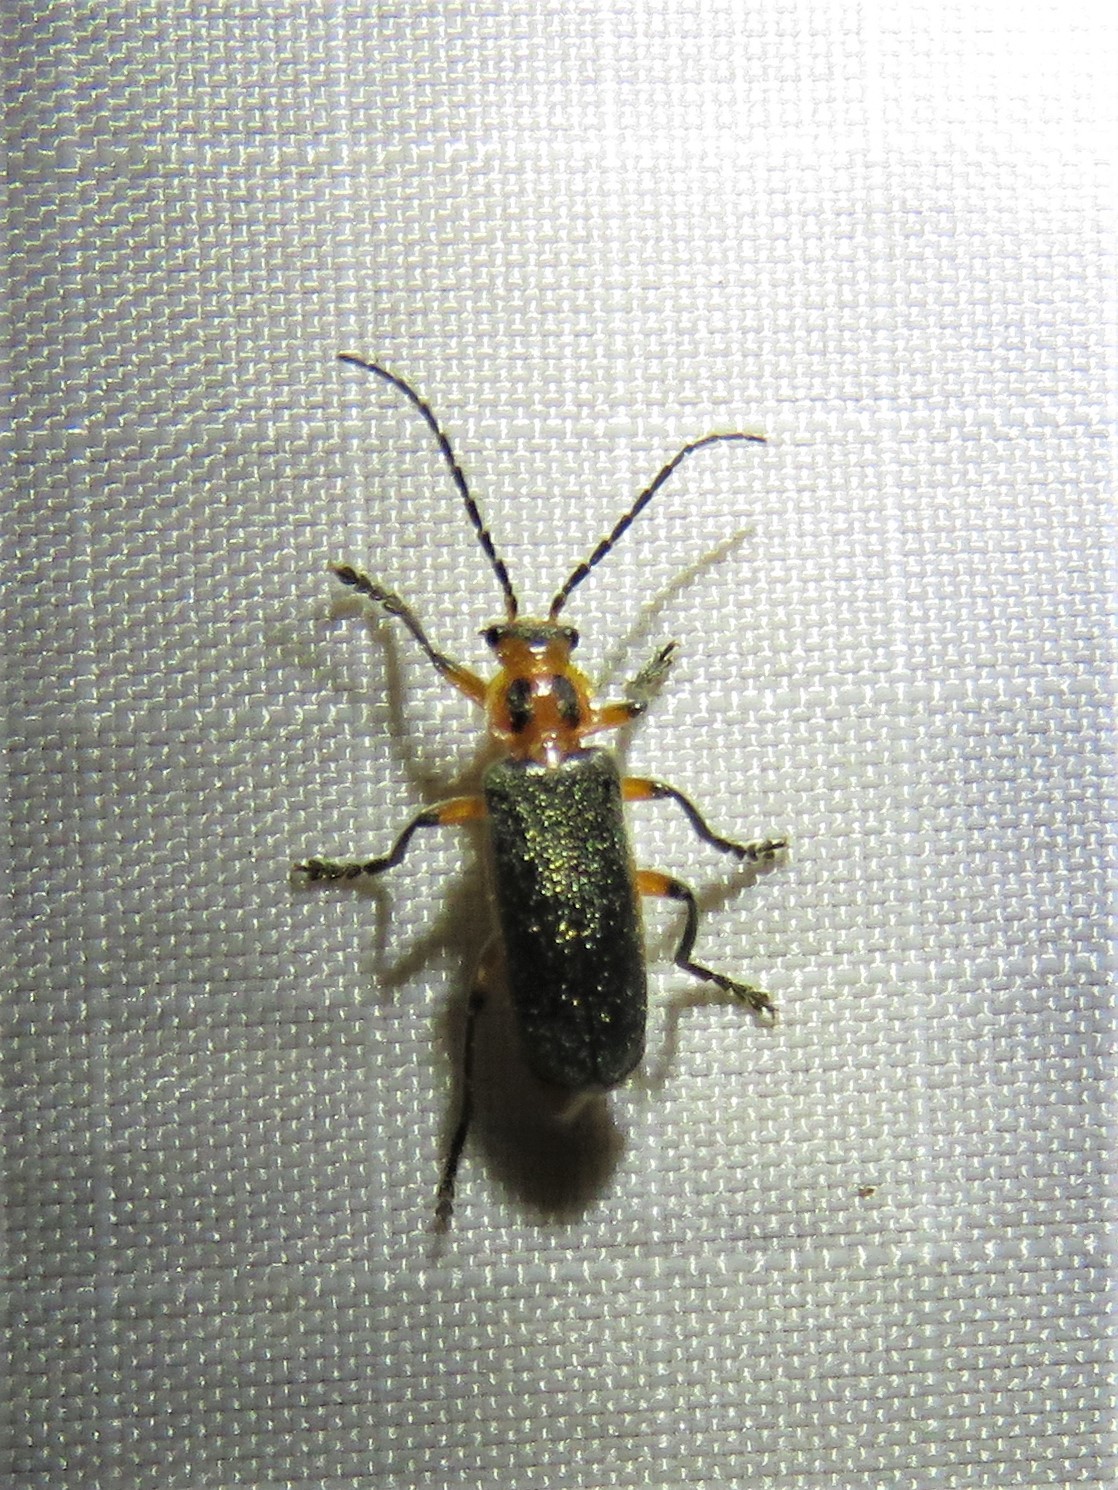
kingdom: Animalia
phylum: Arthropoda
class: Insecta
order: Coleoptera
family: Cantharidae
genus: Atalantycha
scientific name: Atalantycha bilineata
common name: Two-lined leatherwing
